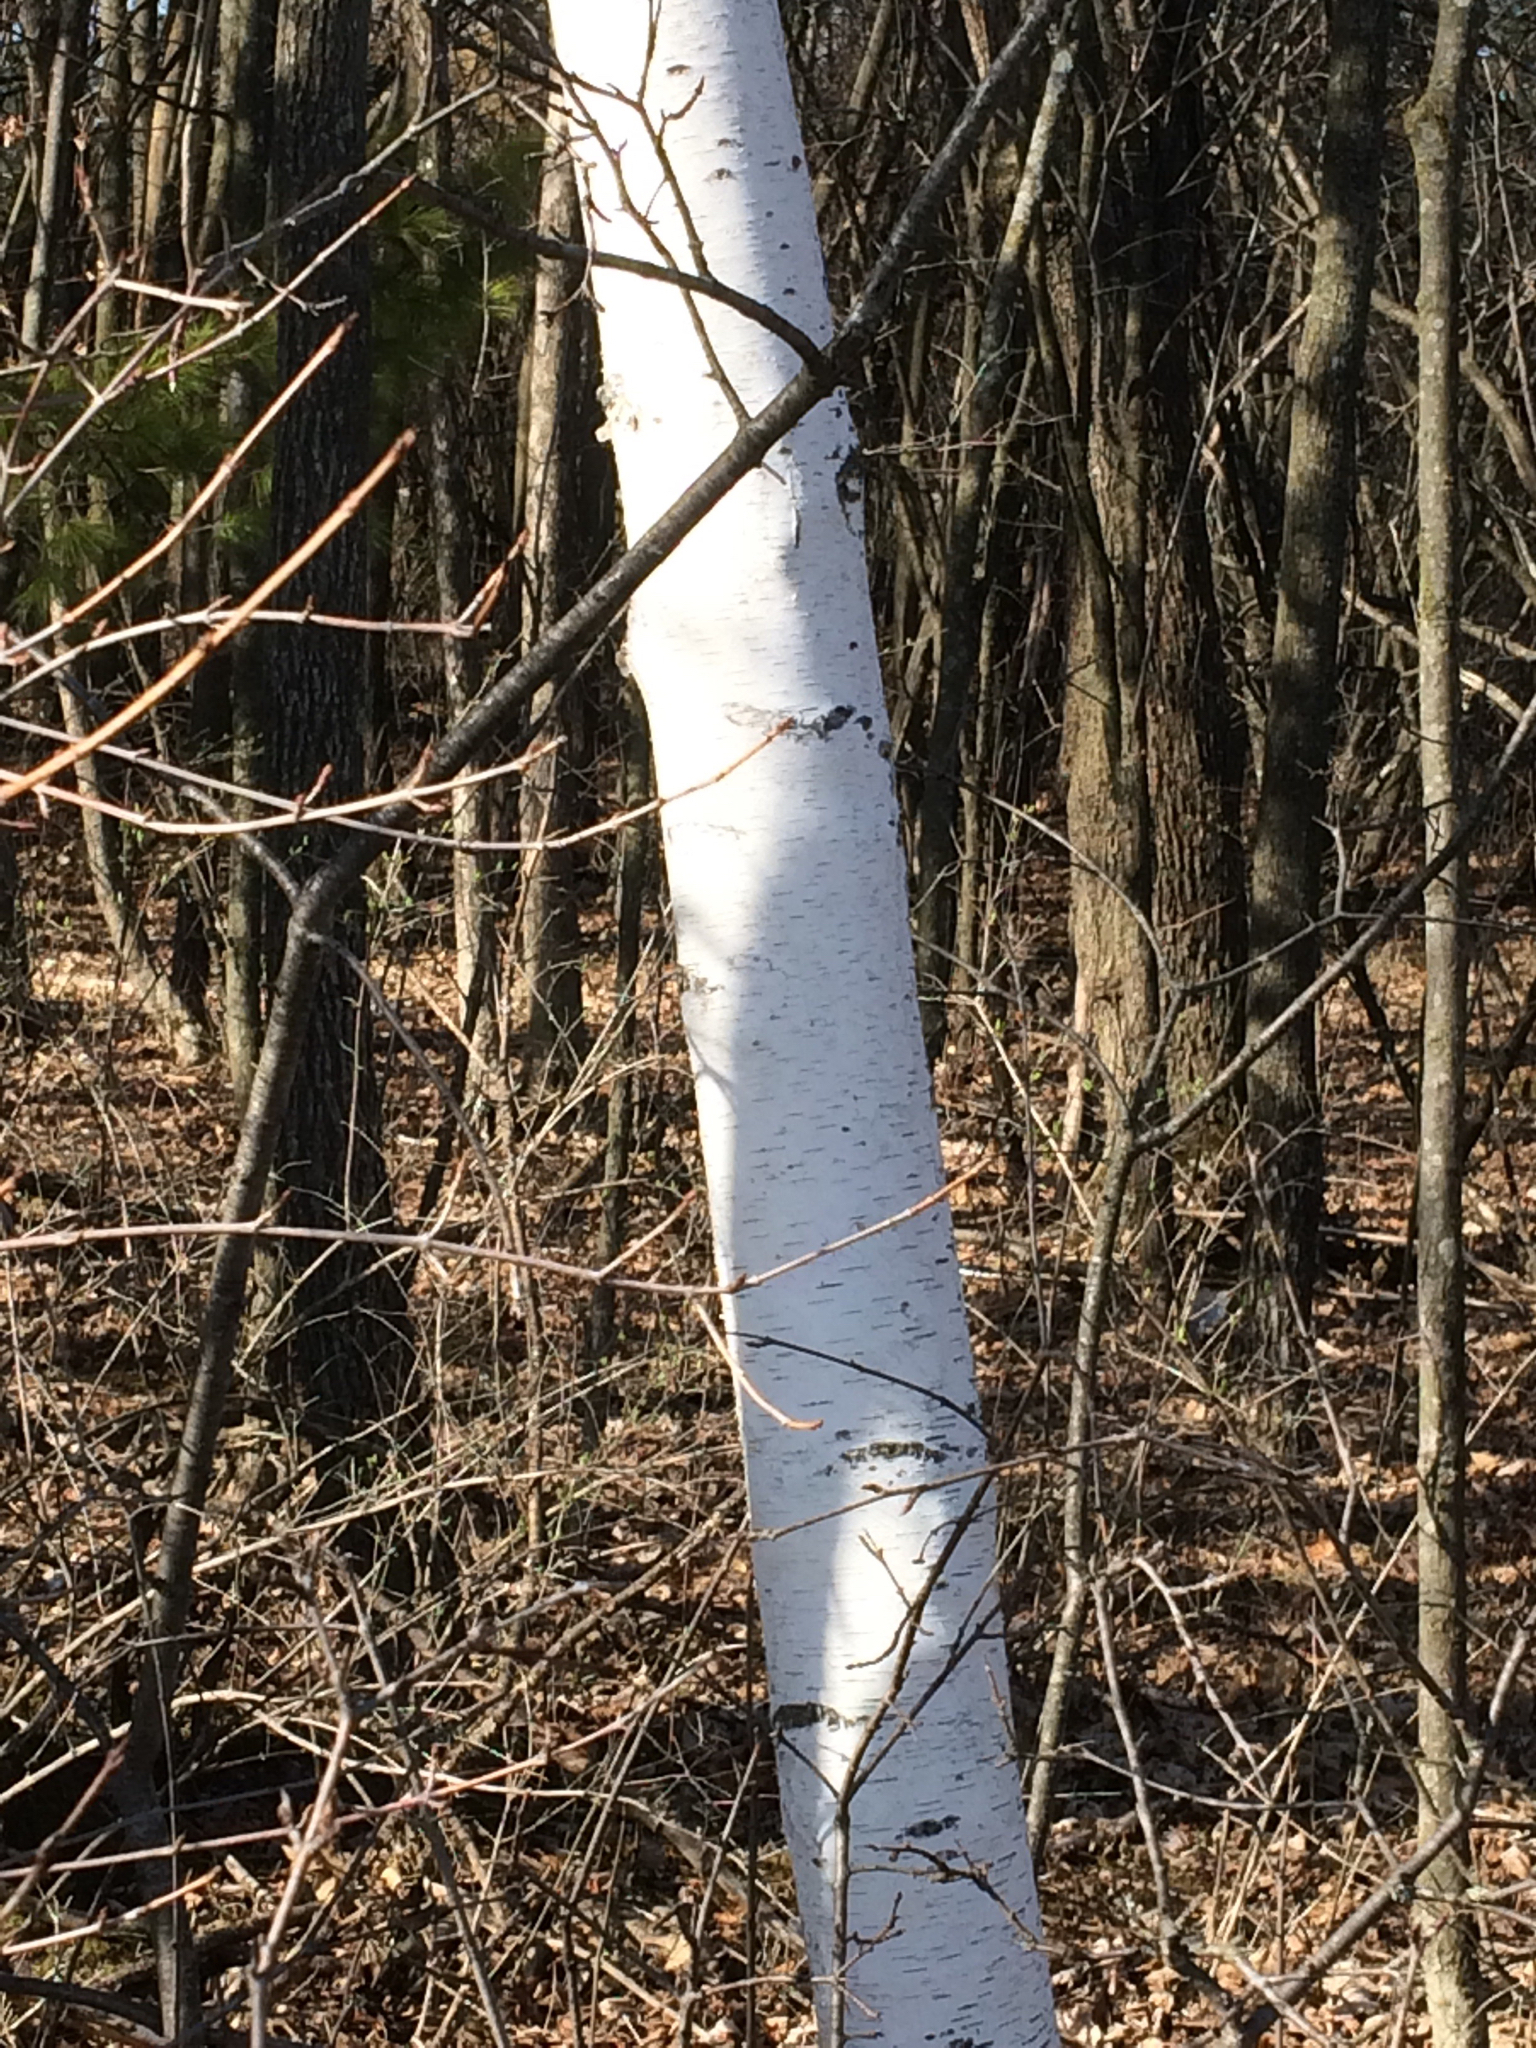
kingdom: Plantae
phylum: Tracheophyta
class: Magnoliopsida
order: Fagales
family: Betulaceae
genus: Betula
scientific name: Betula papyrifera
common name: Paper birch
